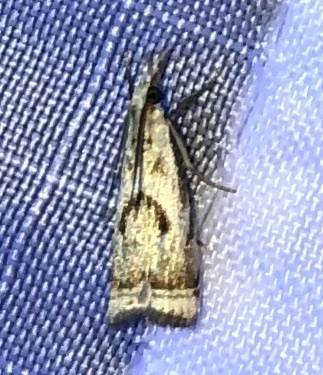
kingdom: Animalia
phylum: Arthropoda
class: Insecta
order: Lepidoptera
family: Crambidae
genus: Microcrambus
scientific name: Microcrambus elegans
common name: Elegant grass-veneer
